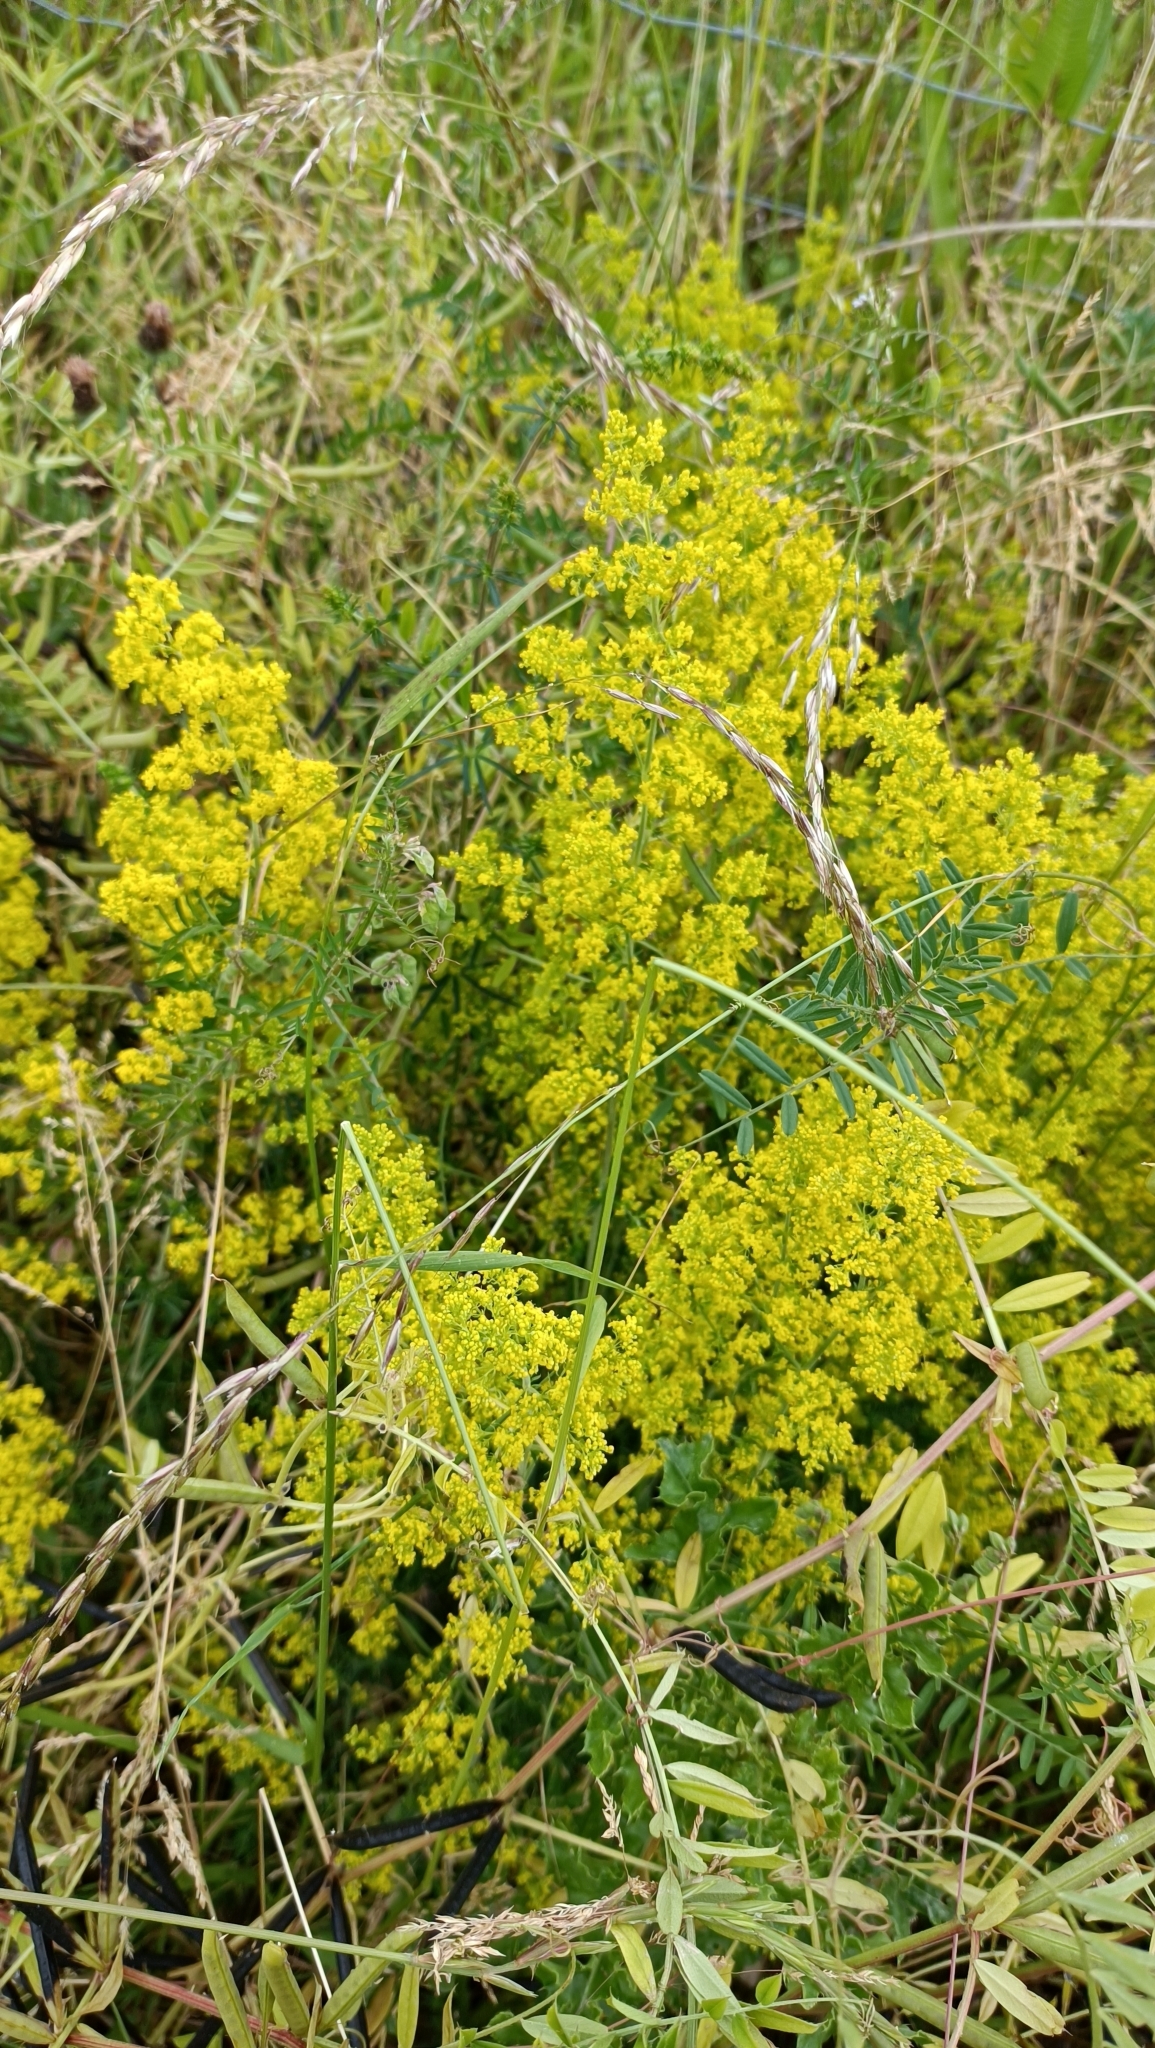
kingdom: Plantae
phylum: Tracheophyta
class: Magnoliopsida
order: Gentianales
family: Rubiaceae
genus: Galium
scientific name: Galium verum
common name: Lady's bedstraw
